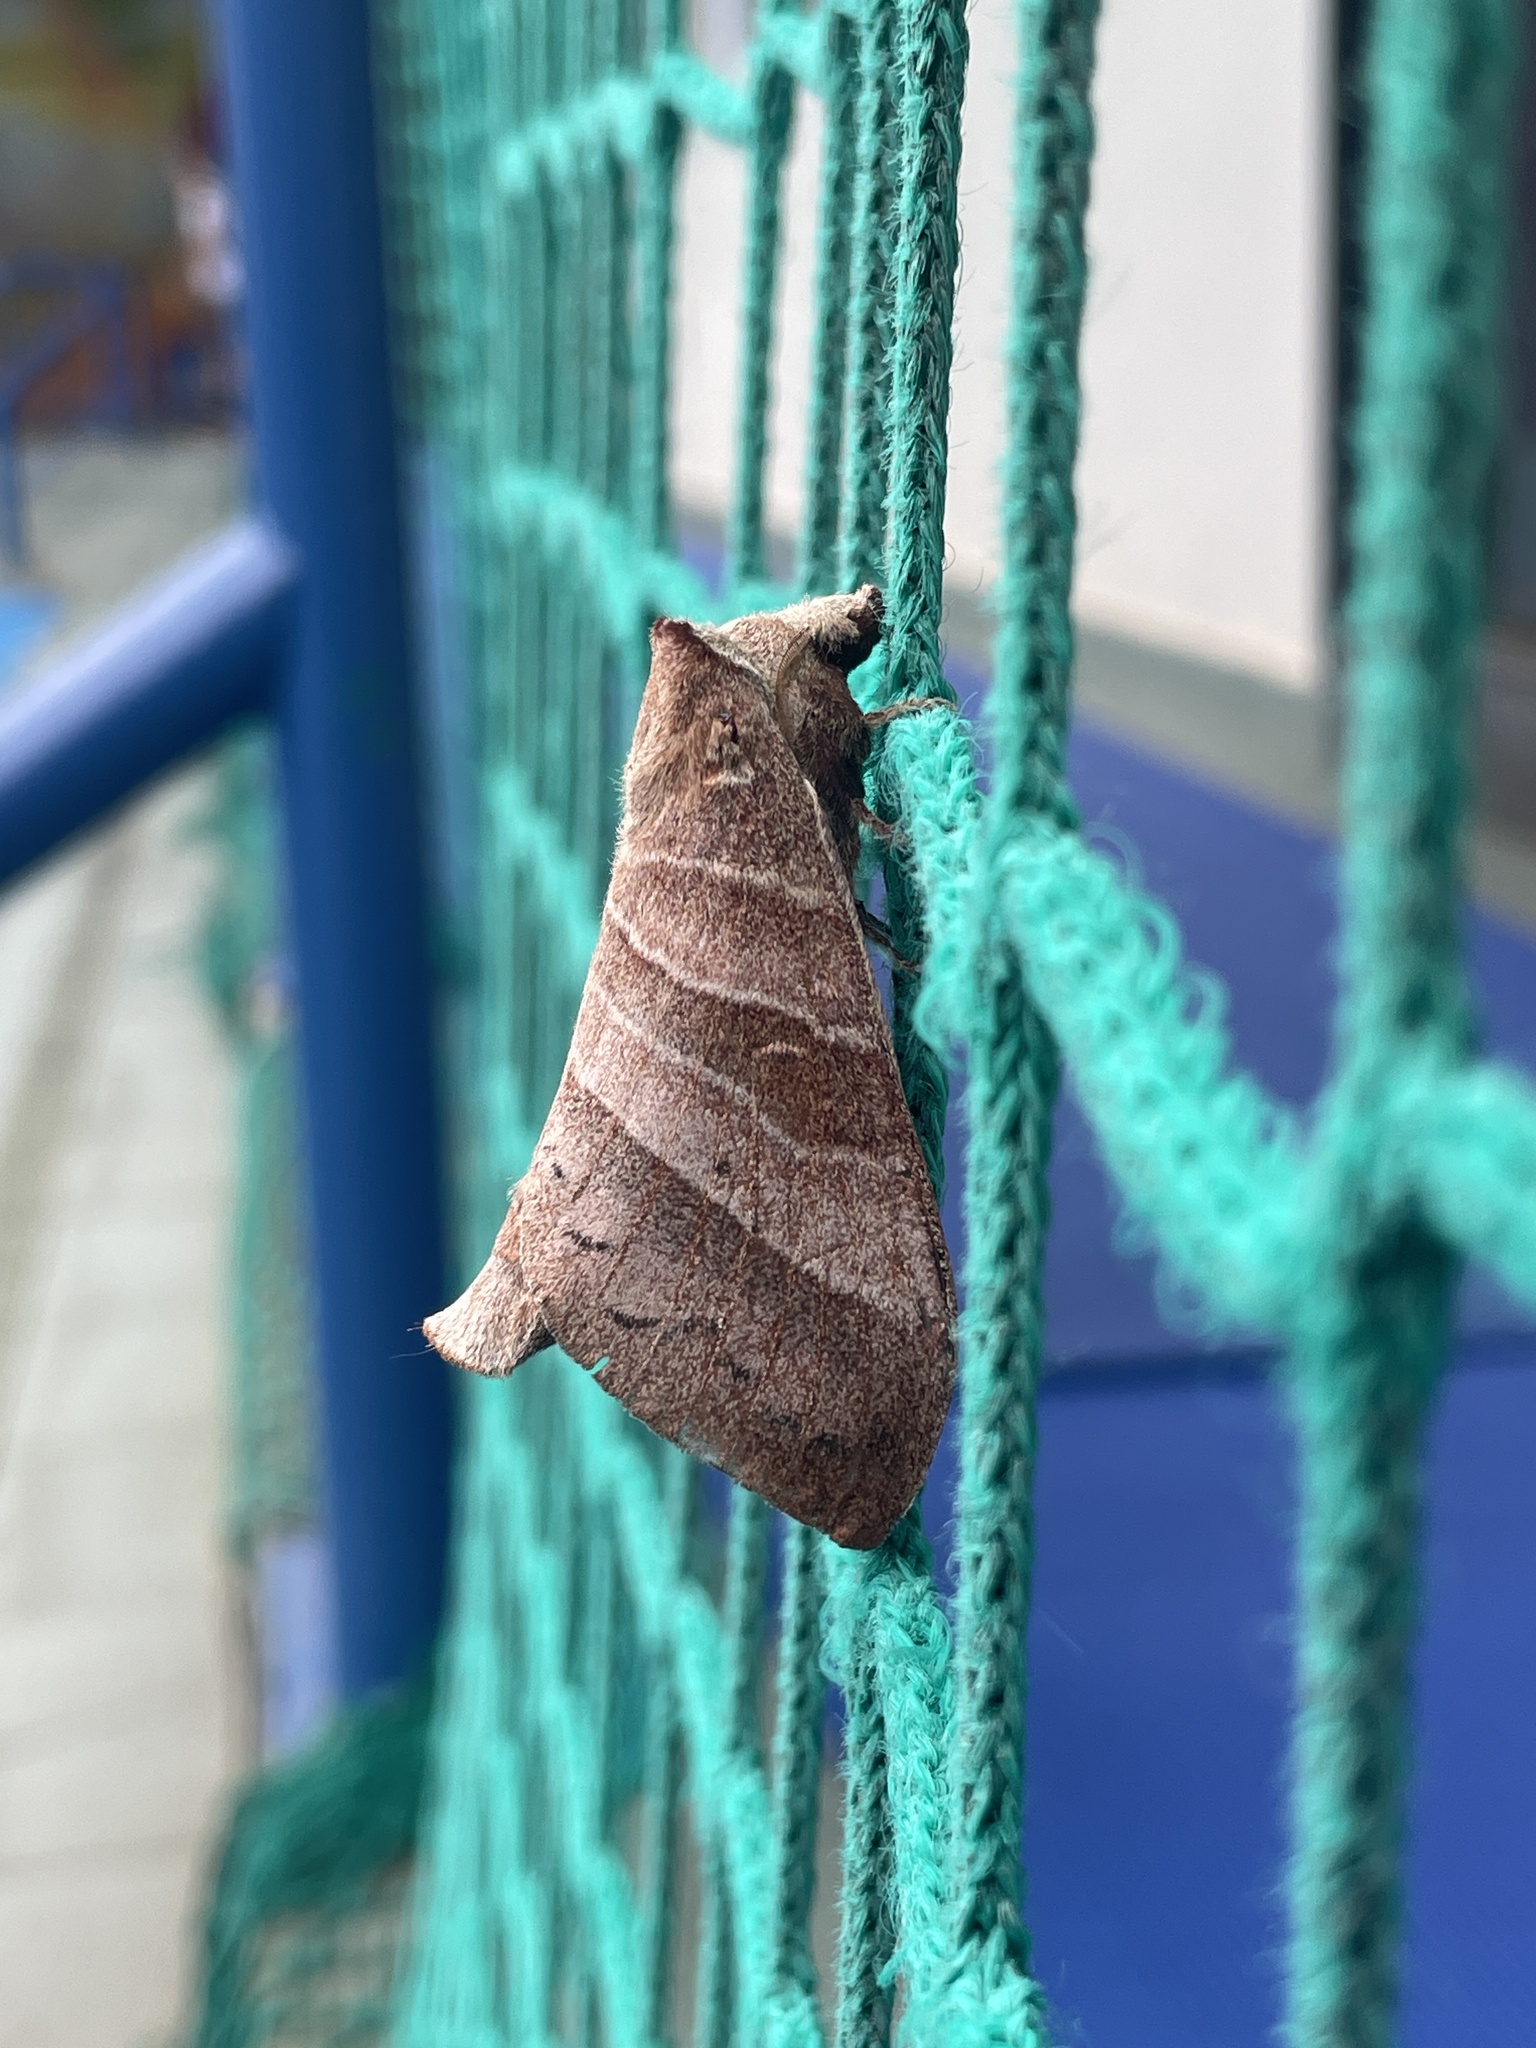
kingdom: Animalia
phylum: Arthropoda
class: Insecta
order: Lepidoptera
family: Lasiocampidae
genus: Metanastria
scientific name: Metanastria gemella
